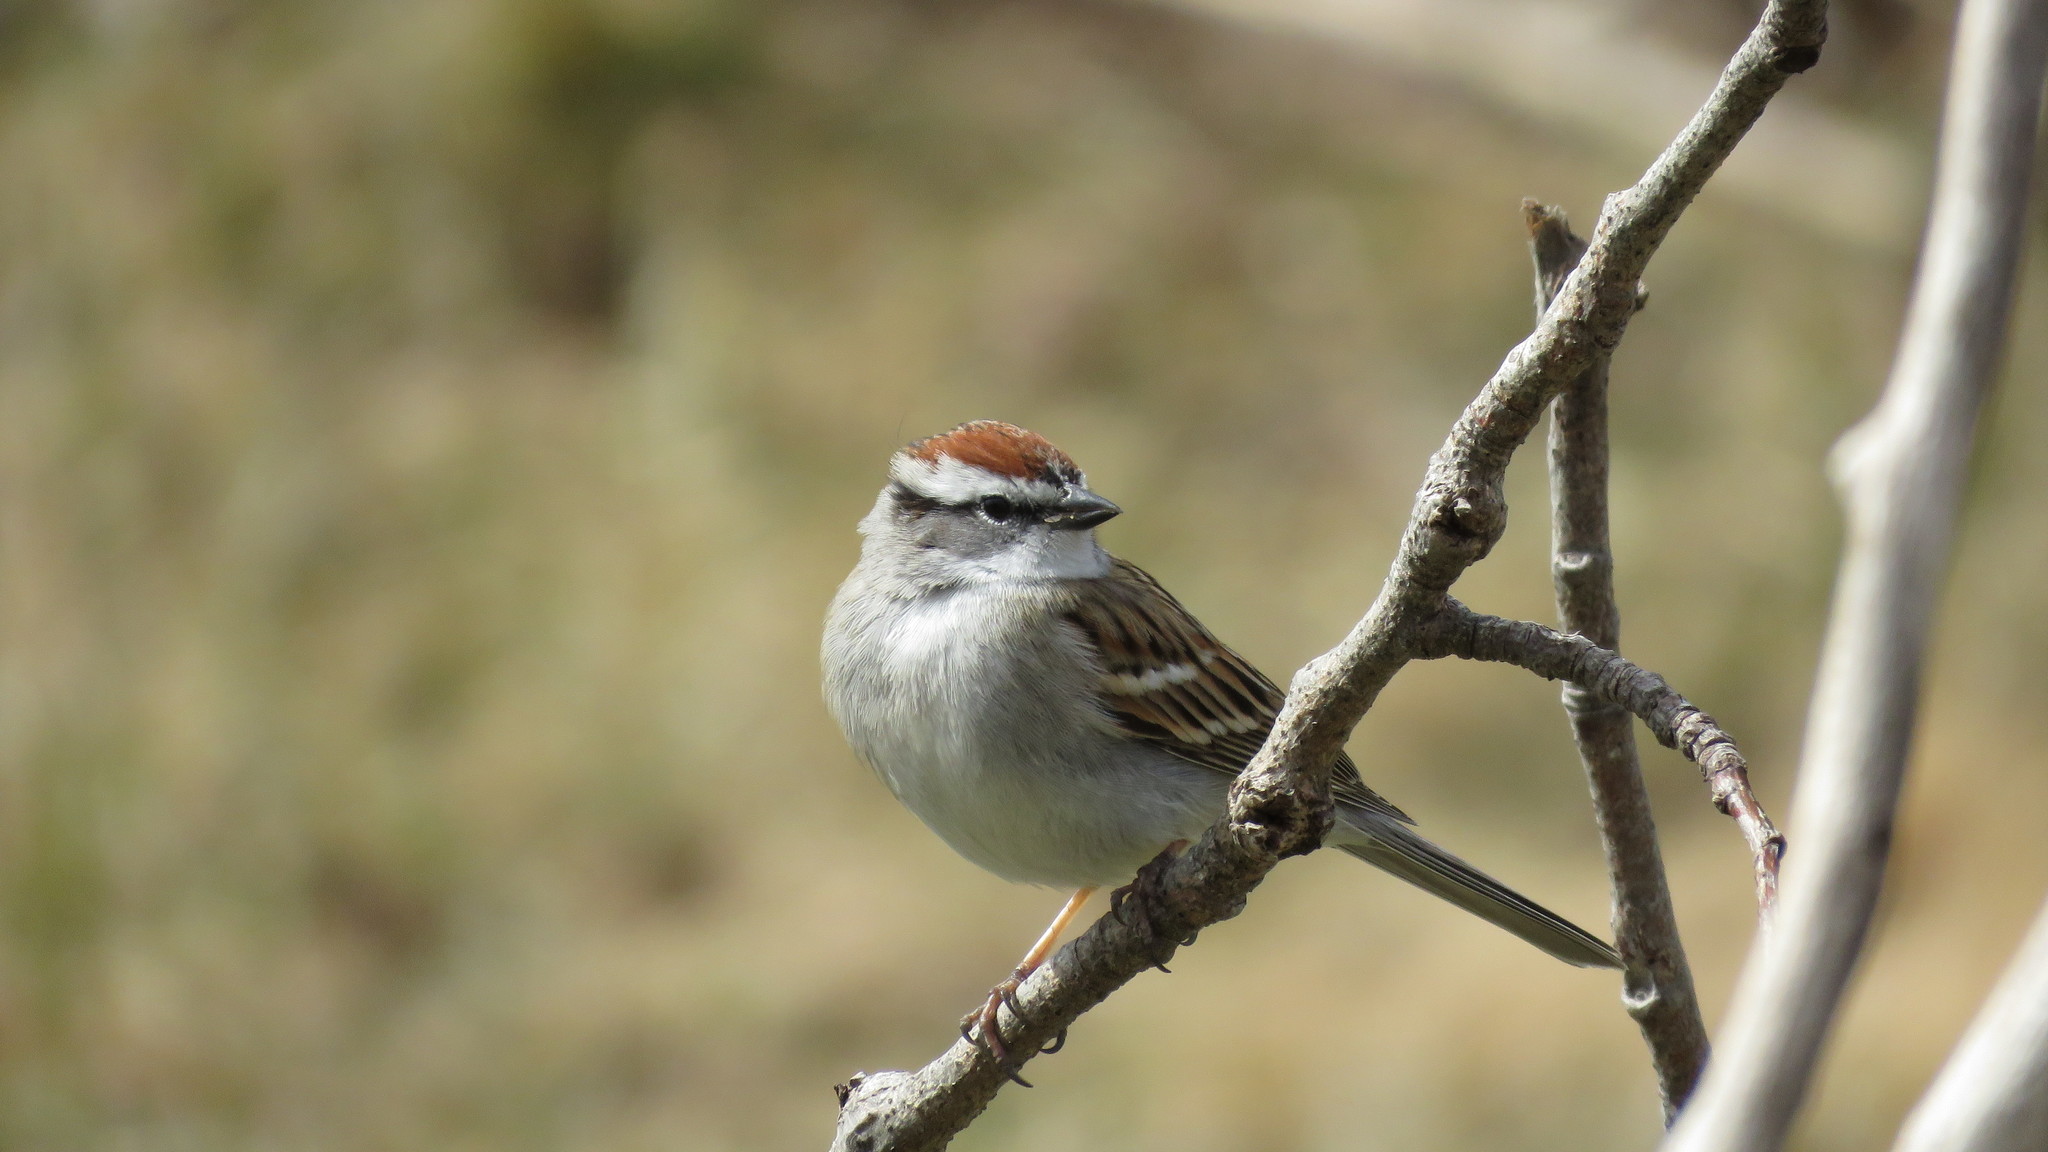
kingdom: Animalia
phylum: Chordata
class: Aves
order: Passeriformes
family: Passerellidae
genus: Spizella
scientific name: Spizella passerina
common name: Chipping sparrow
